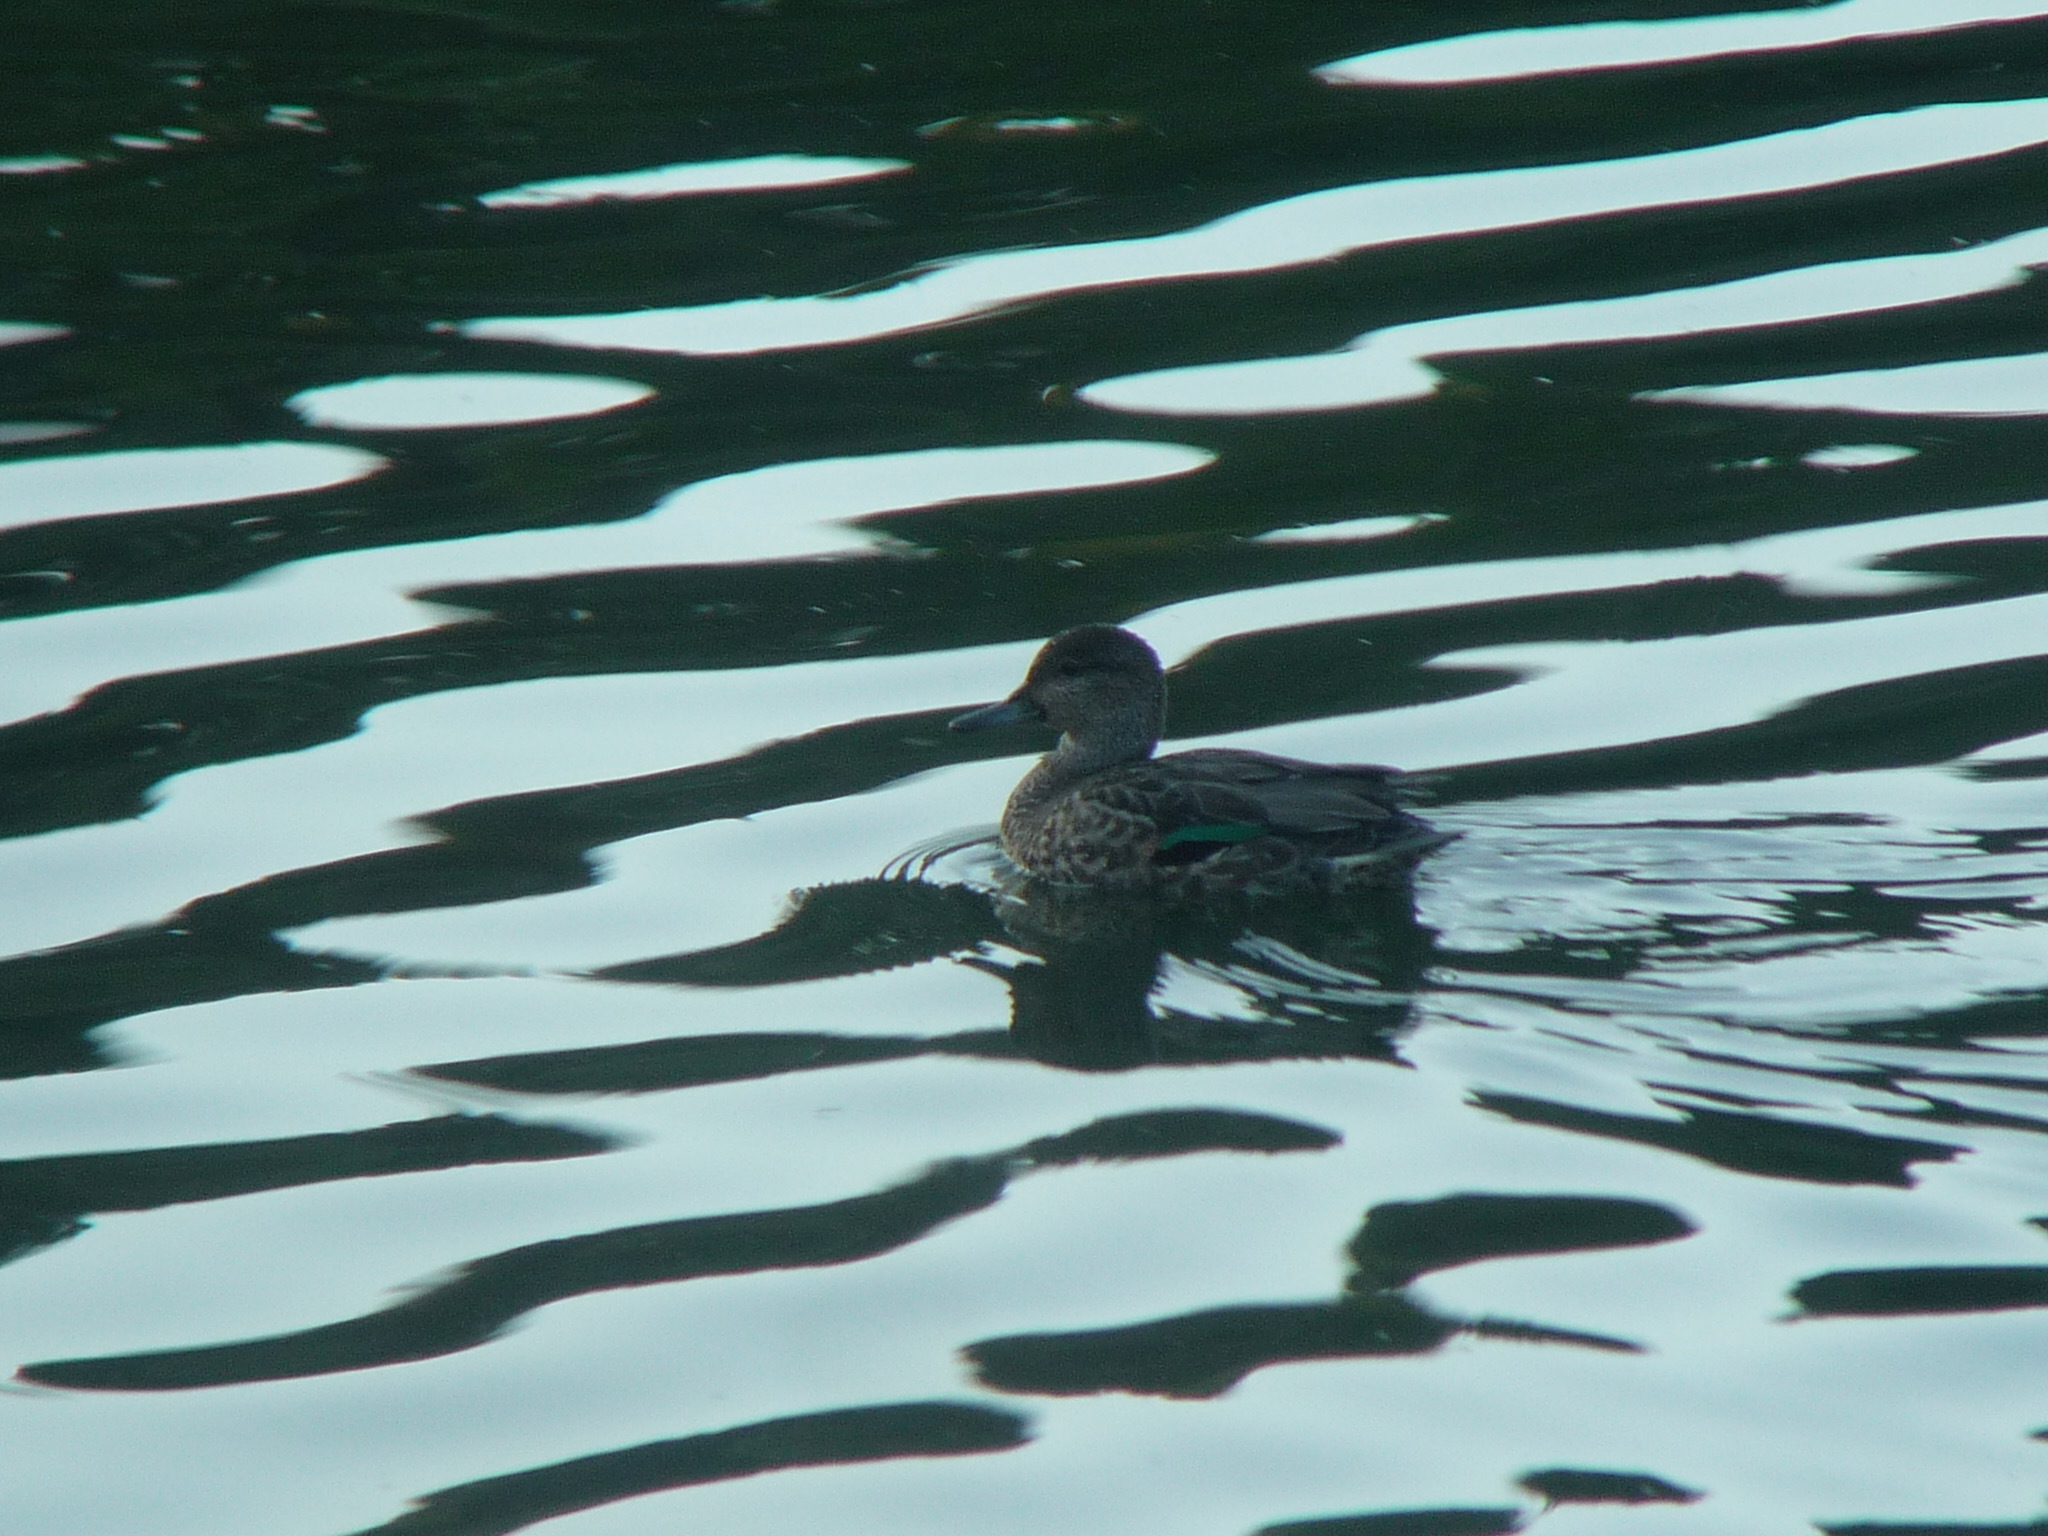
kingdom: Animalia
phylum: Chordata
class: Aves
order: Anseriformes
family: Anatidae
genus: Anas
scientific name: Anas crecca
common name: Eurasian teal
